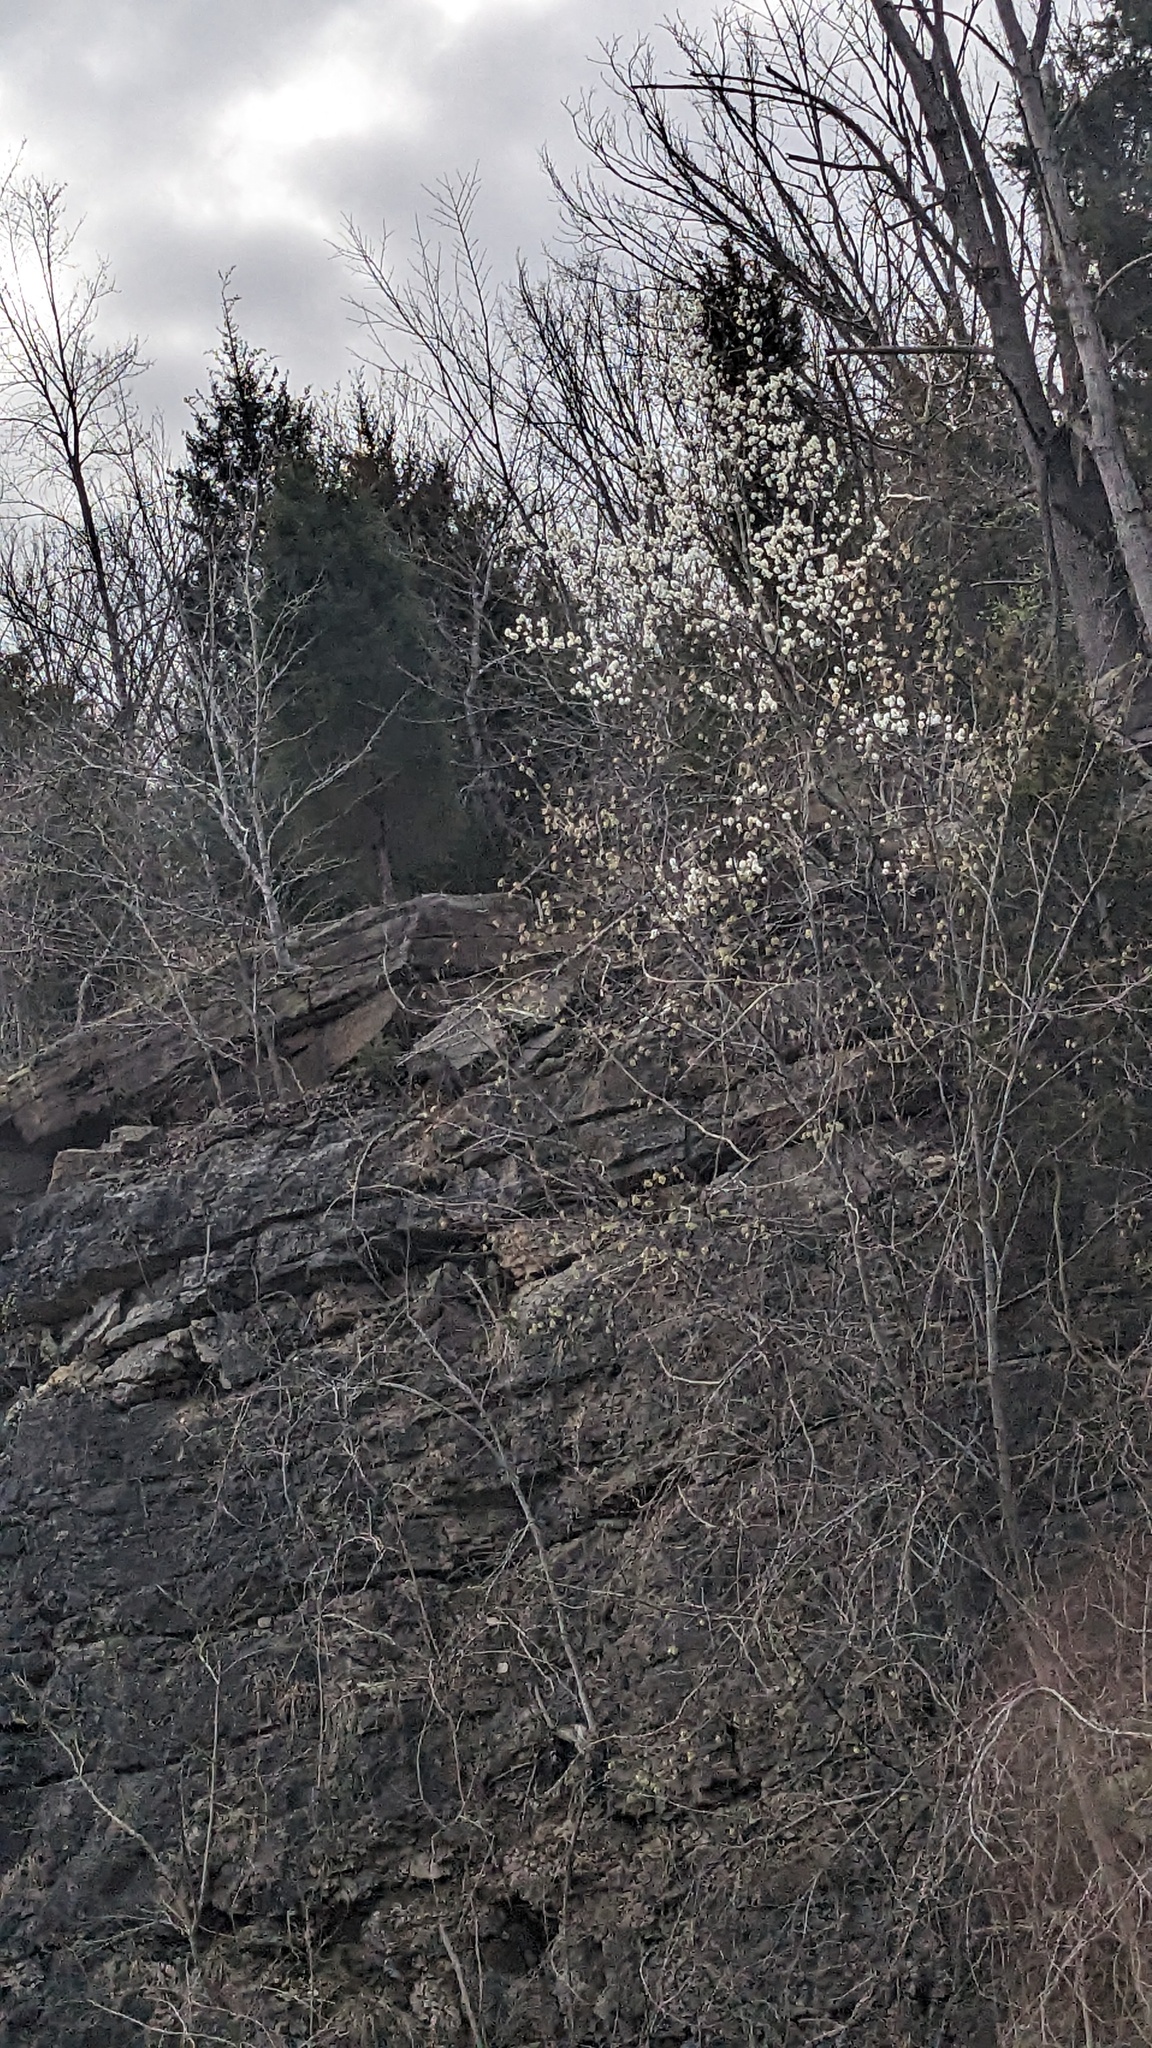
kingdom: Plantae
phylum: Tracheophyta
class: Magnoliopsida
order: Rosales
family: Rosaceae
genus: Pyrus
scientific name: Pyrus calleryana
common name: Callery pear
